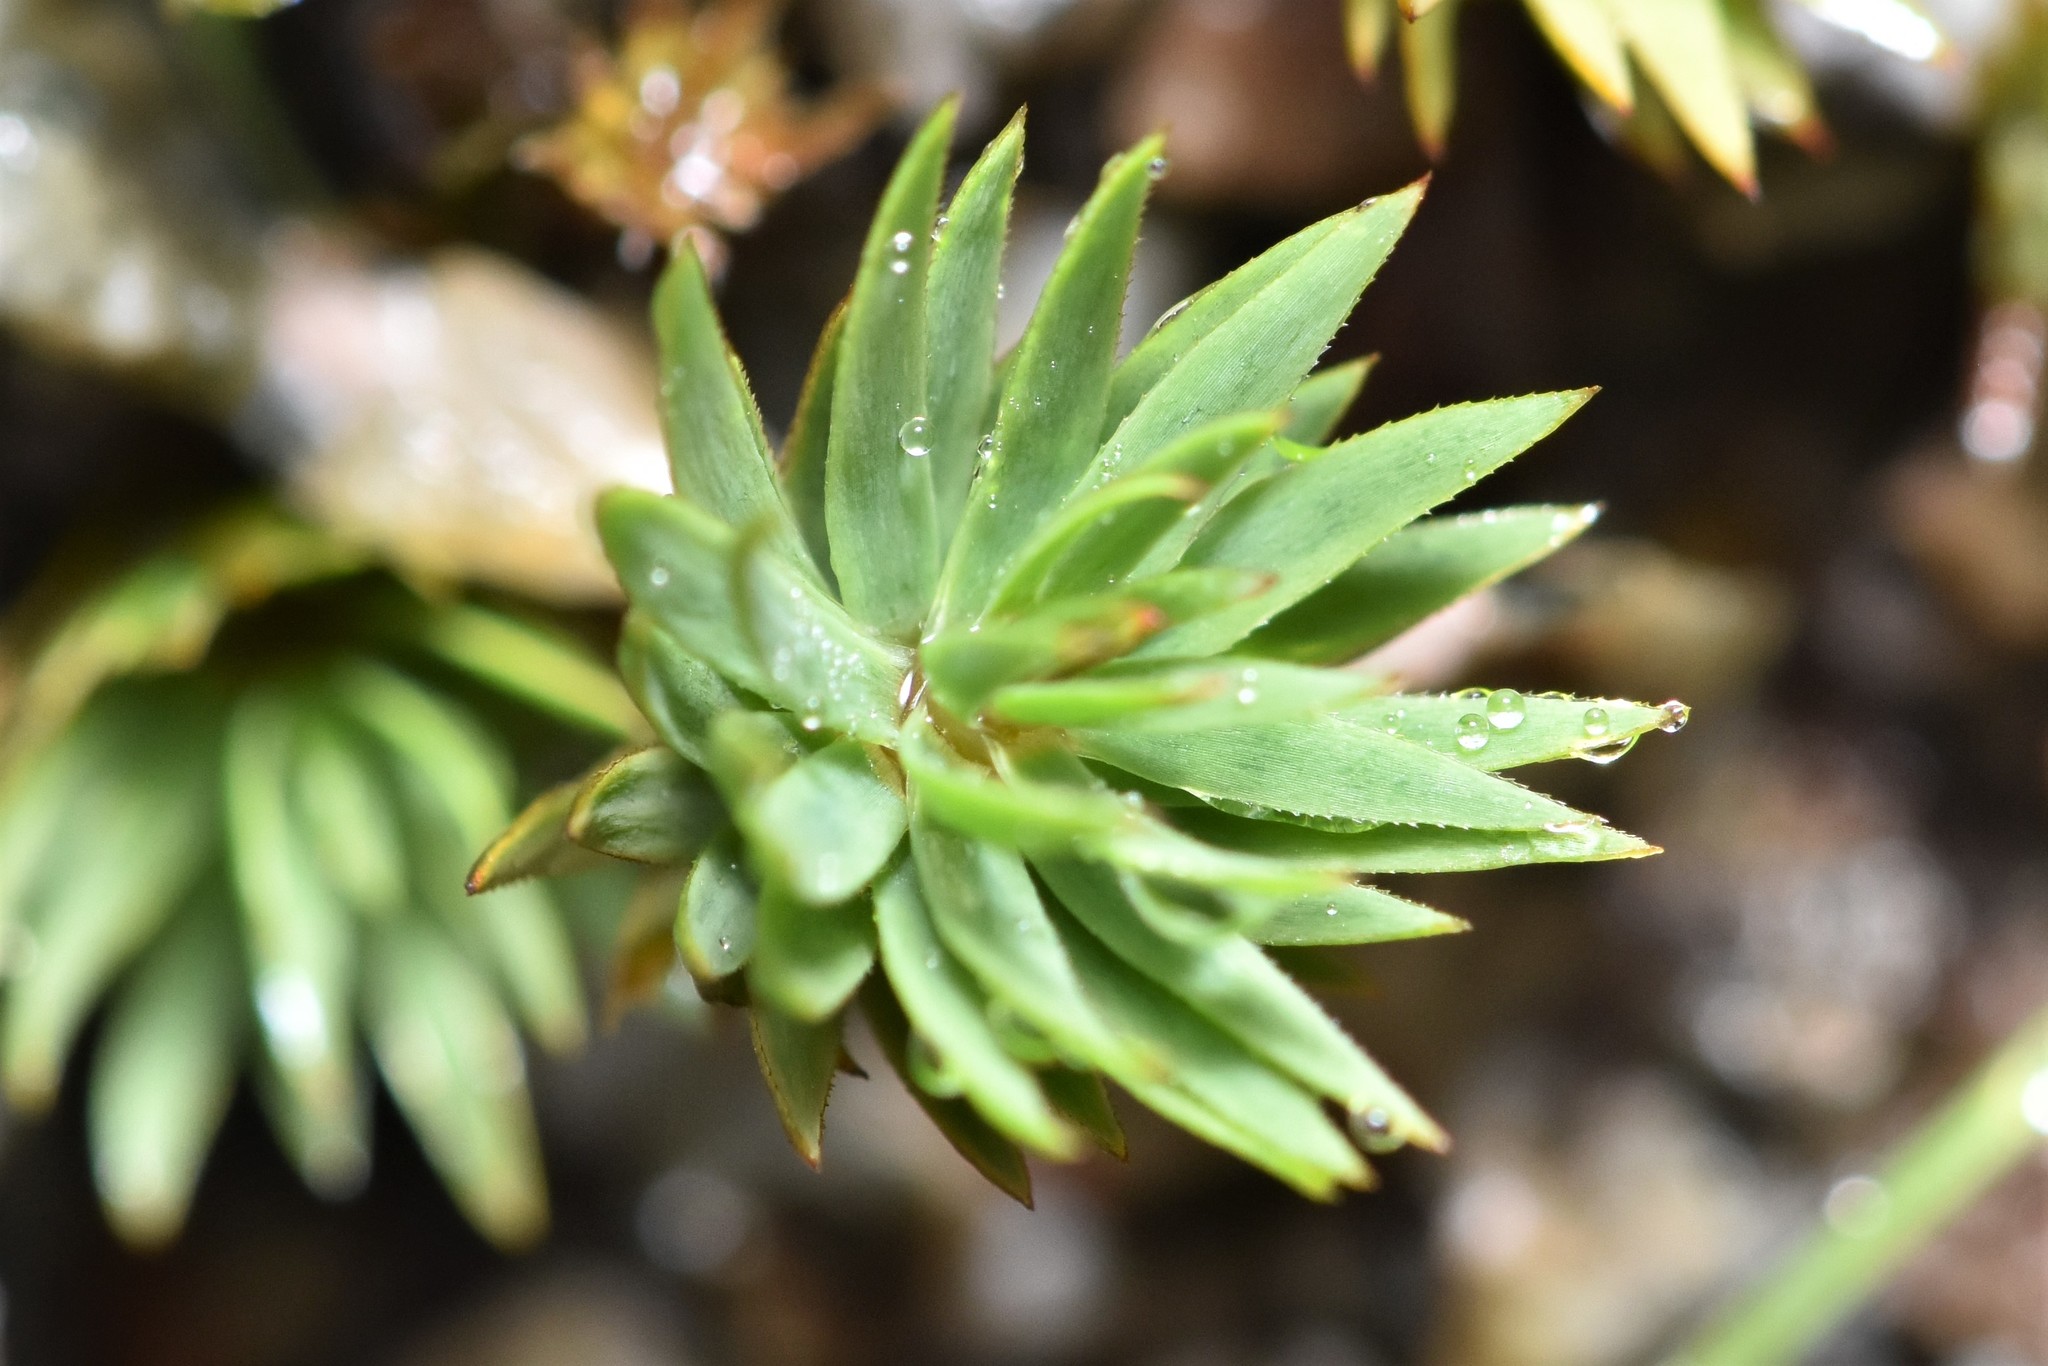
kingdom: Plantae
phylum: Bryophyta
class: Polytrichopsida
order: Polytrichales
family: Polytrichaceae
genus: Pogonatum
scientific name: Pogonatum urnigerum
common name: Urn hair moss
